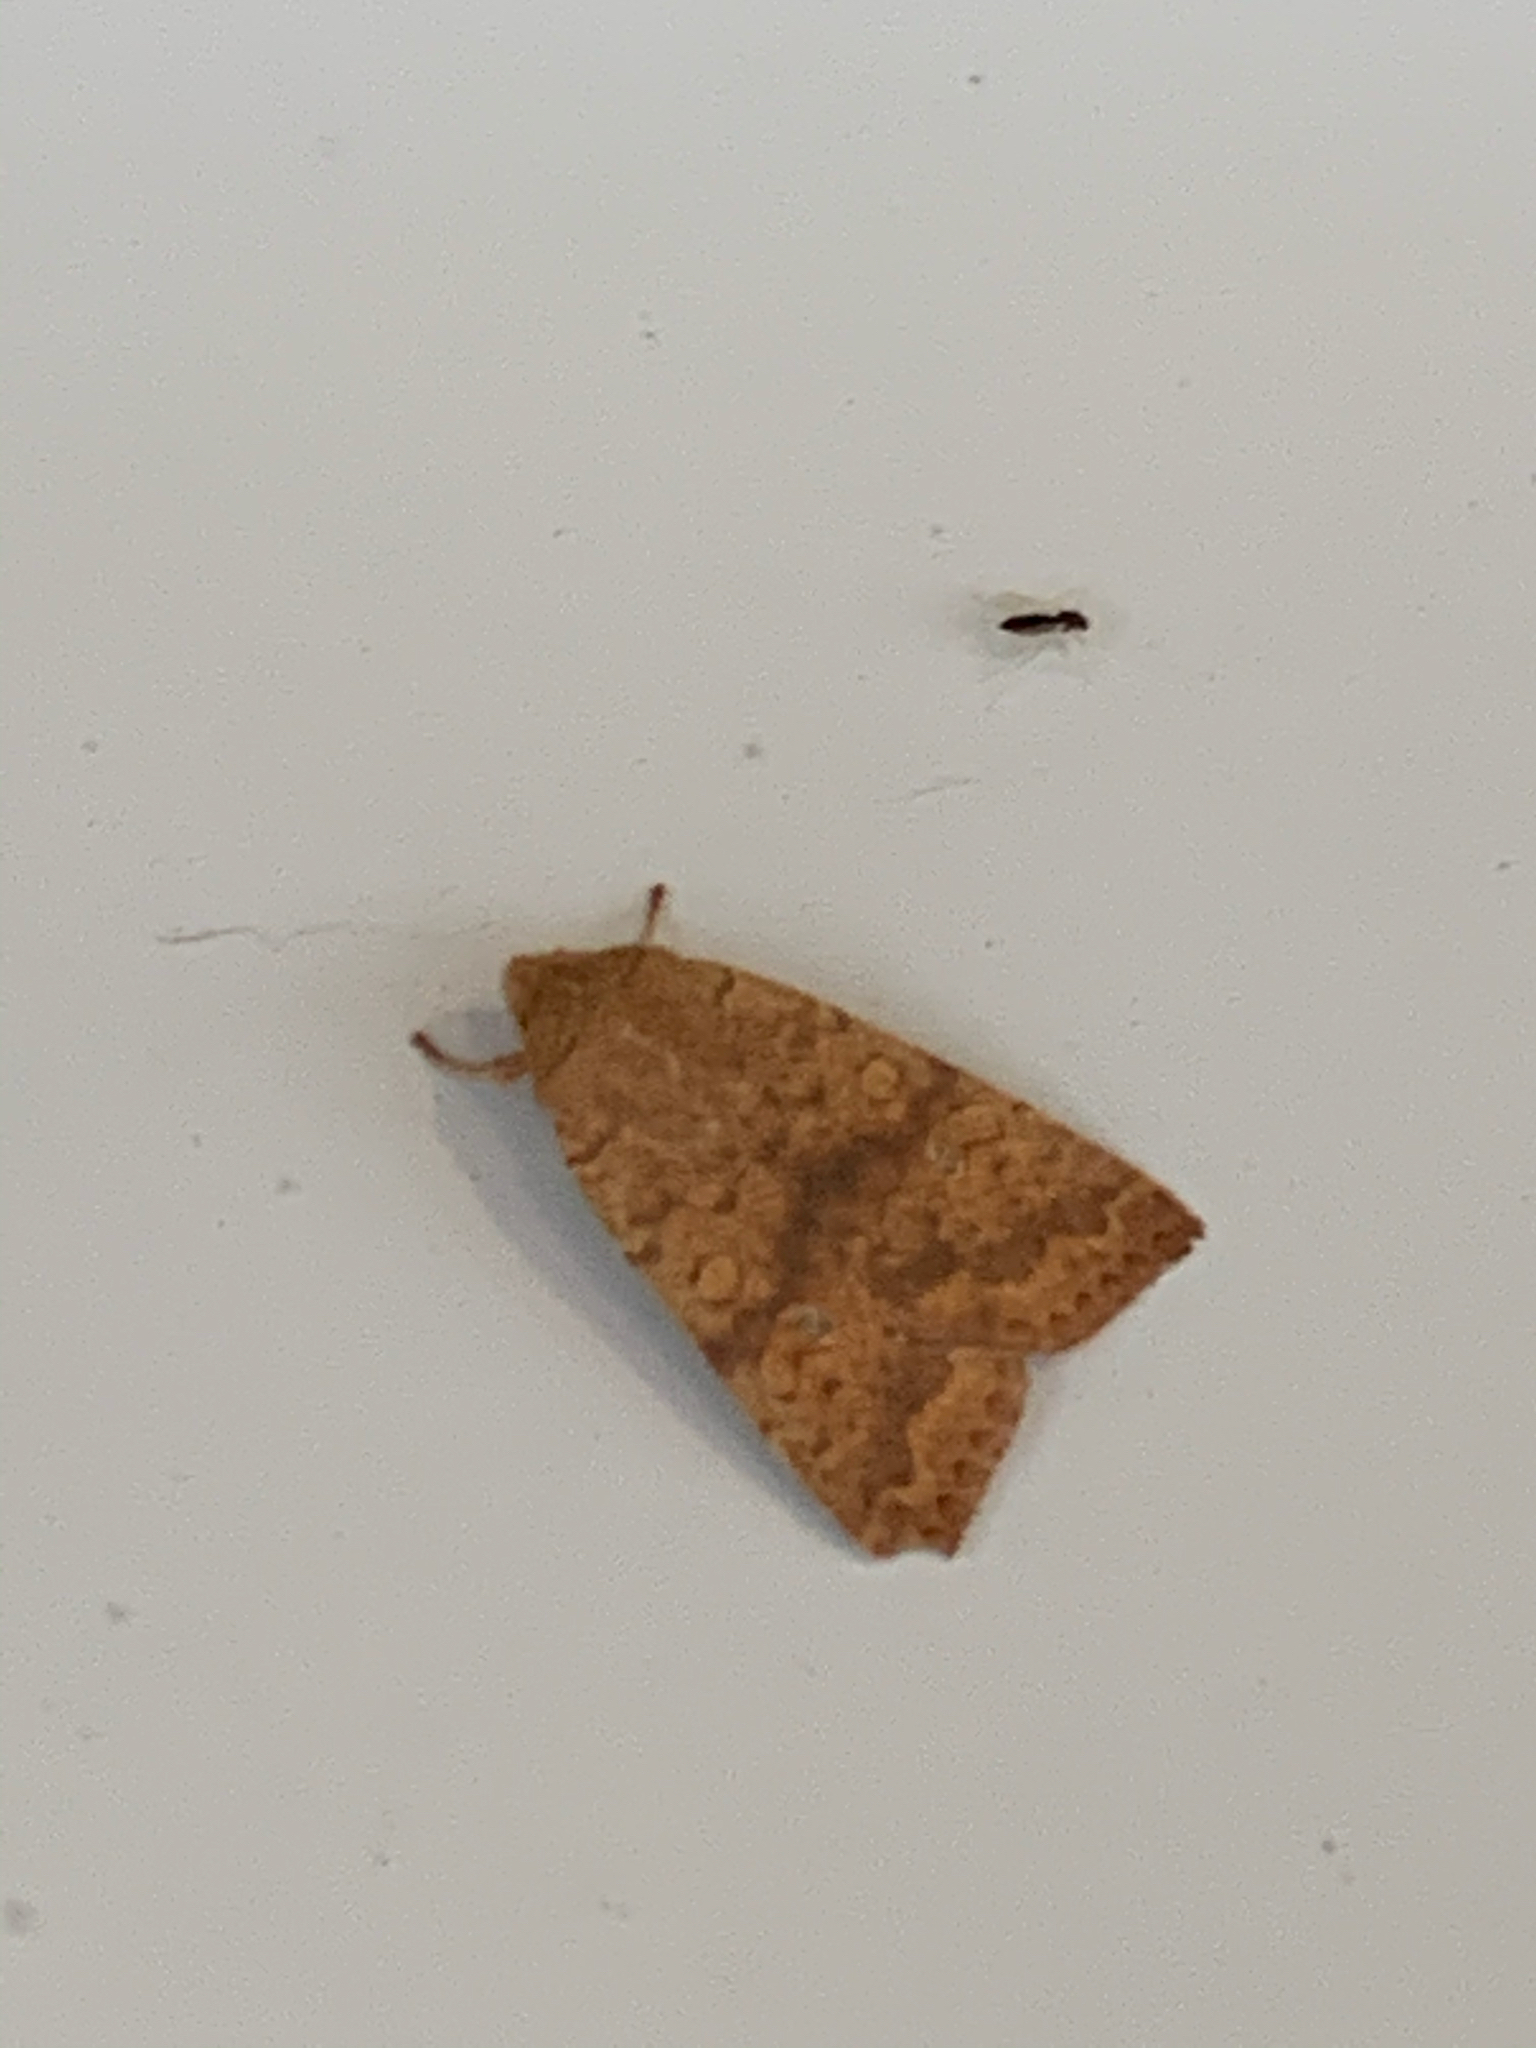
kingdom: Animalia
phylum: Arthropoda
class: Insecta
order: Lepidoptera
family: Noctuidae
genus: Agrochola
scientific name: Agrochola bicolorago
